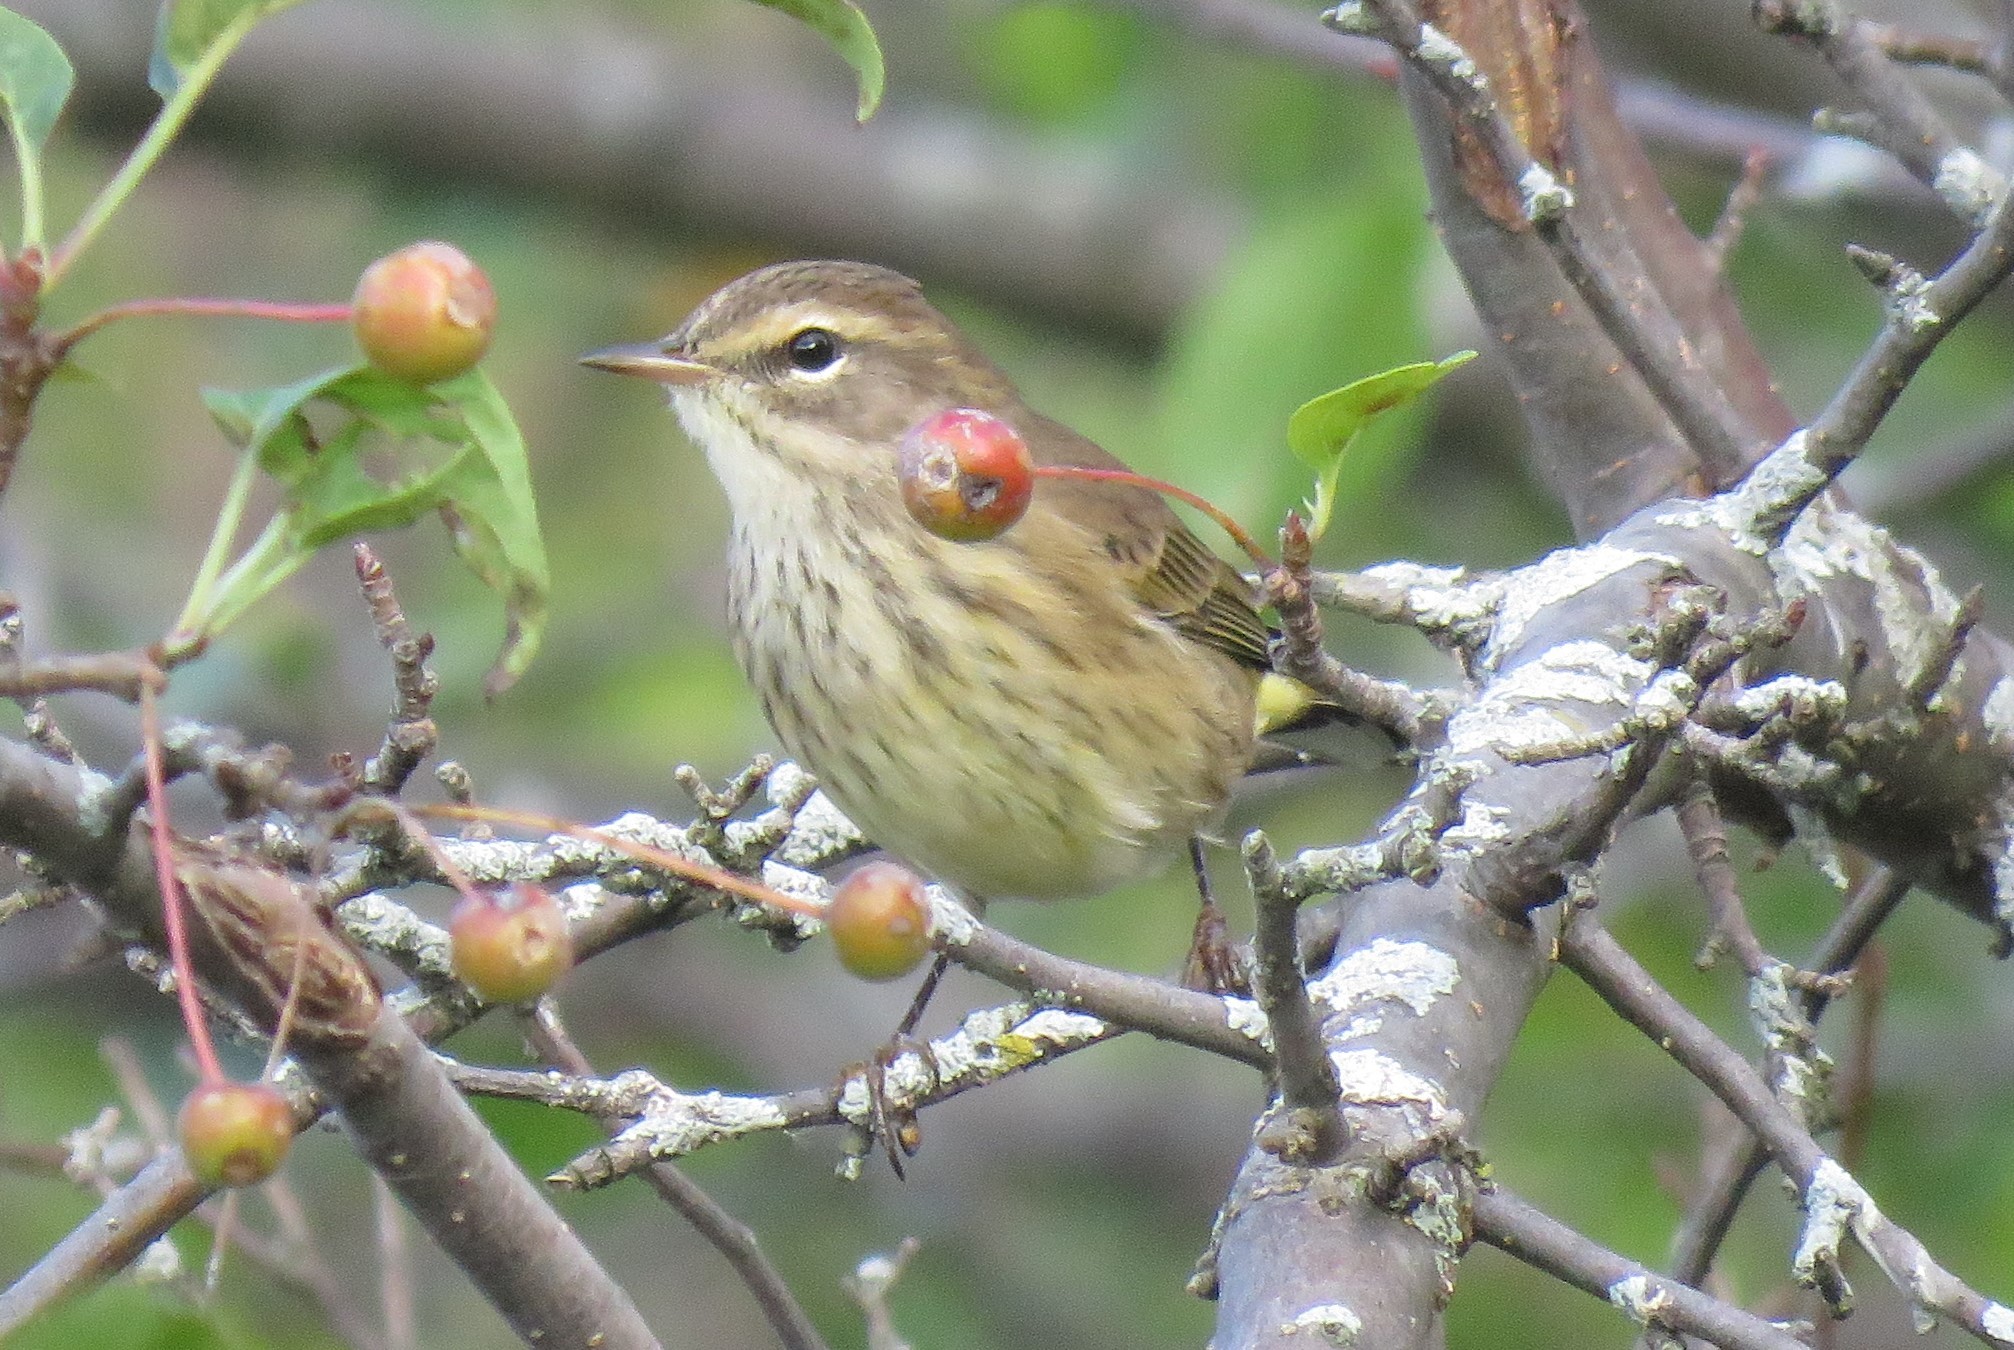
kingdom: Animalia
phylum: Chordata
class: Aves
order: Passeriformes
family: Parulidae
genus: Setophaga
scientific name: Setophaga palmarum
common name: Palm warbler
